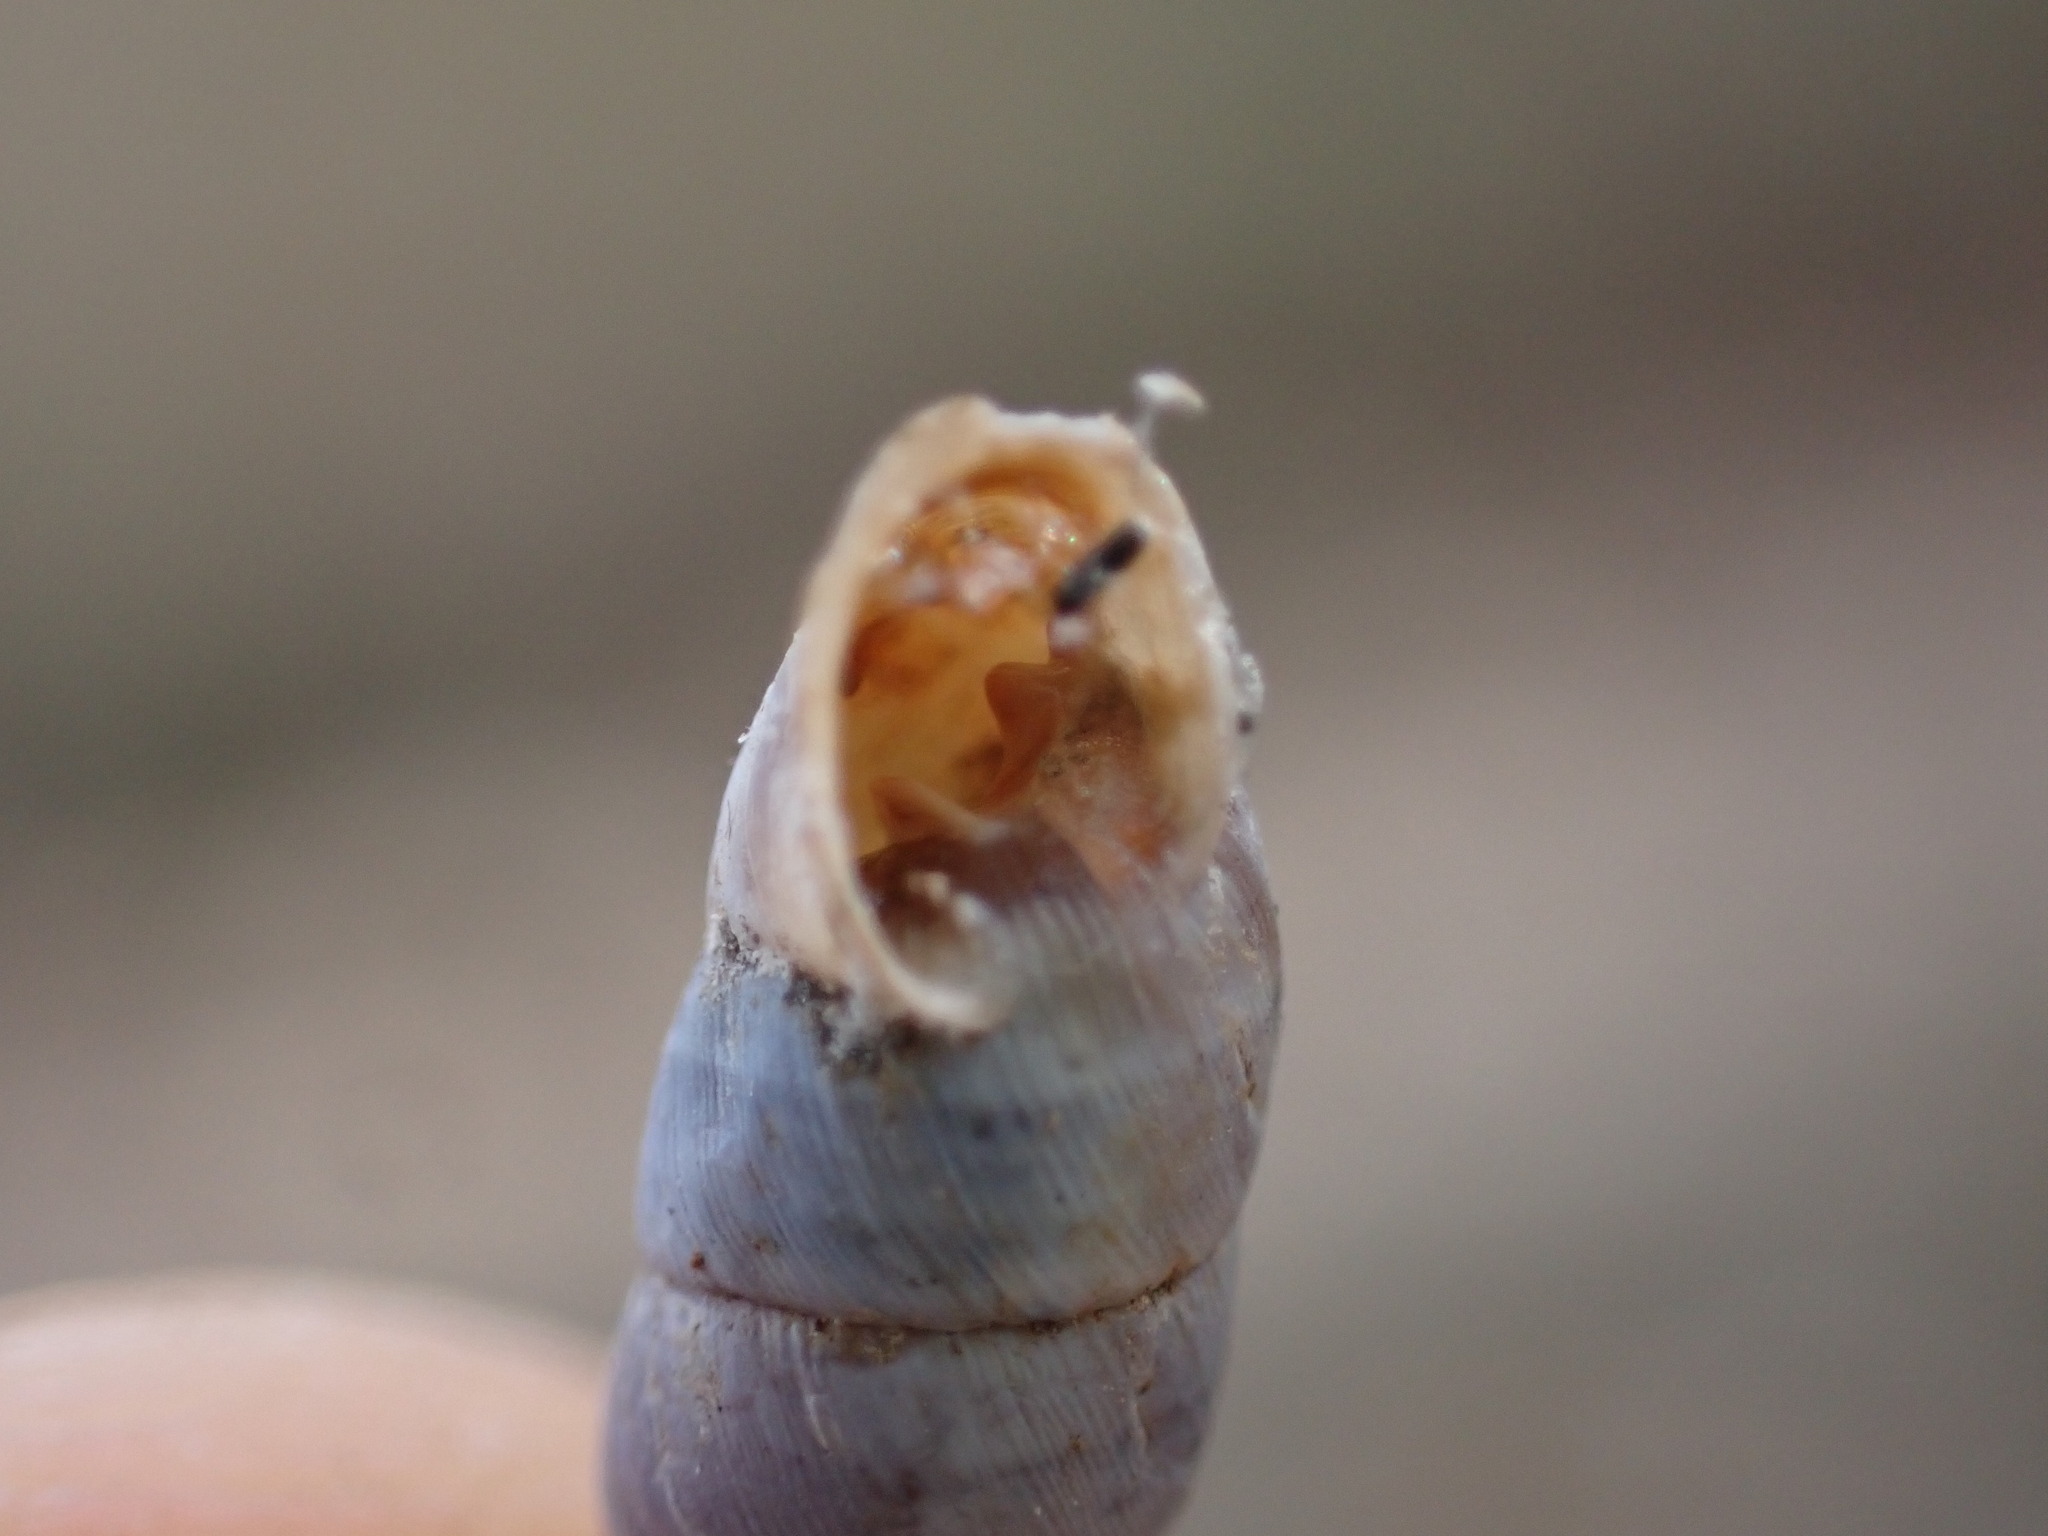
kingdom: Animalia
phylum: Mollusca
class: Gastropoda
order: Stylommatophora
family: Chondrinidae
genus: Solatopupa
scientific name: Solatopupa similis
